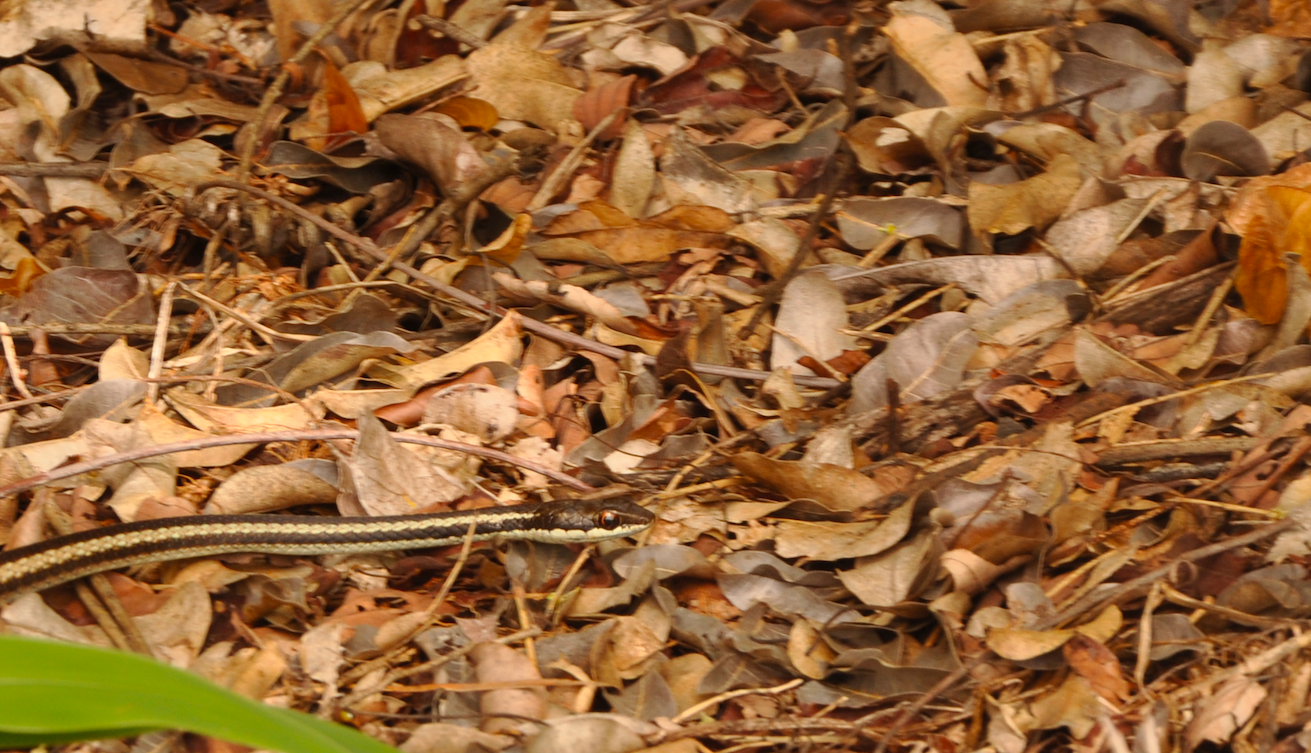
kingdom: Animalia
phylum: Chordata
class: Squamata
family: Pseudoxyrhophiidae
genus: Dromicodryas
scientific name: Dromicodryas bernieri
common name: Bernier's striped snake
